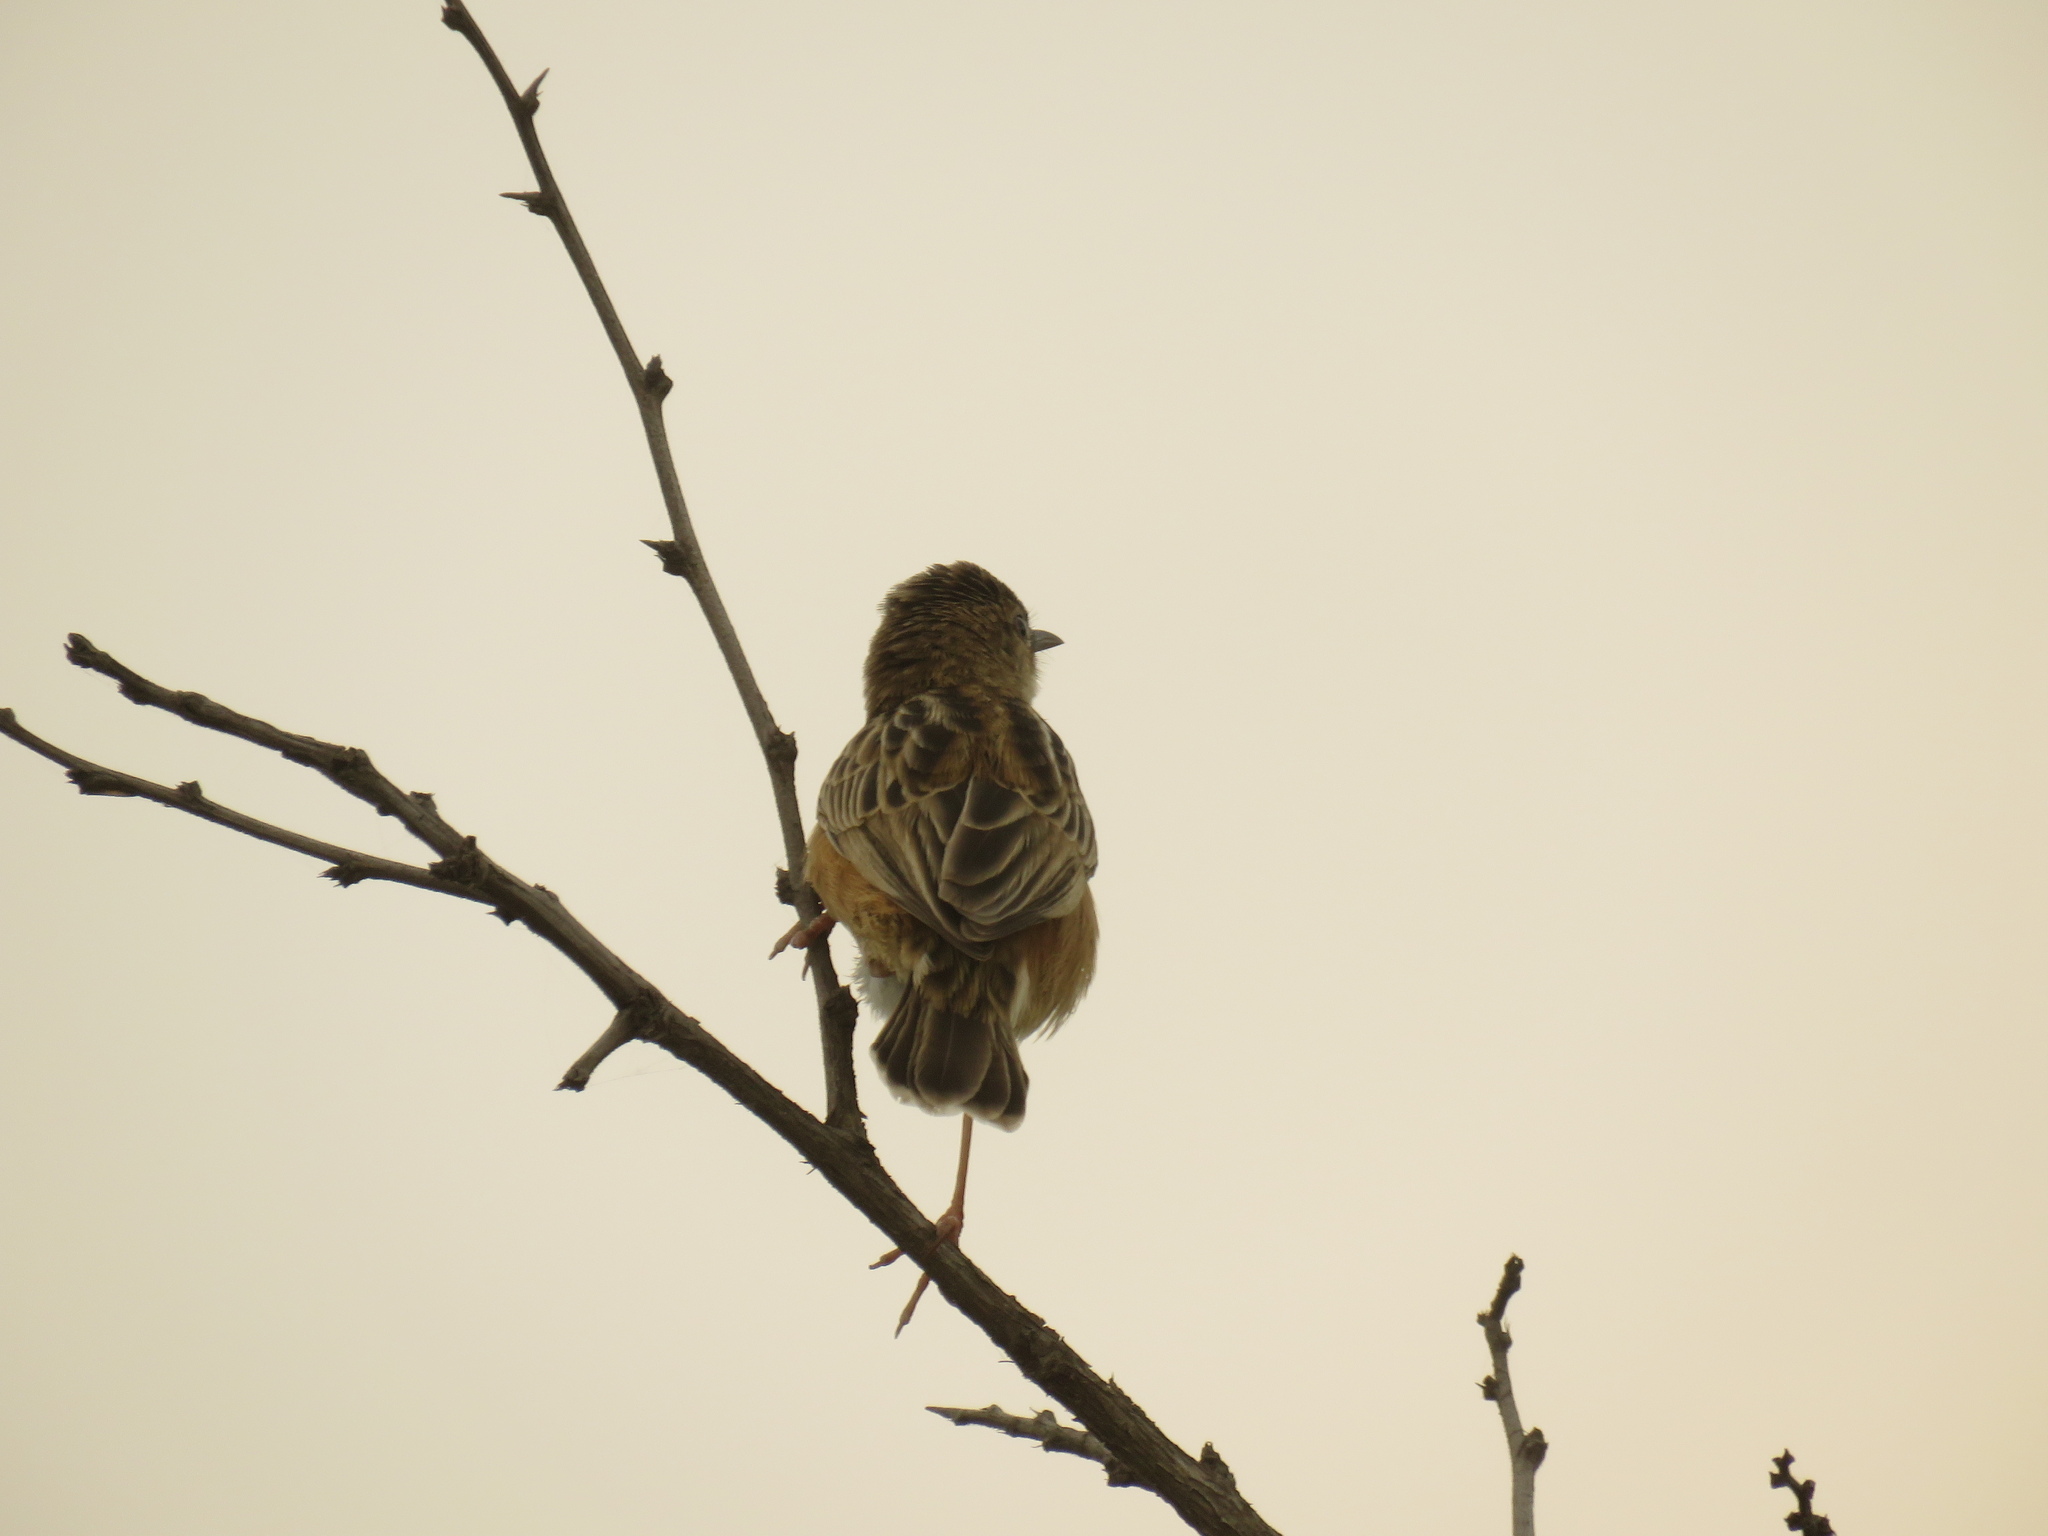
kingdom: Animalia
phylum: Chordata
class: Aves
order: Passeriformes
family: Cisticolidae
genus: Cisticola
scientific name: Cisticola juncidis
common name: Zitting cisticola
